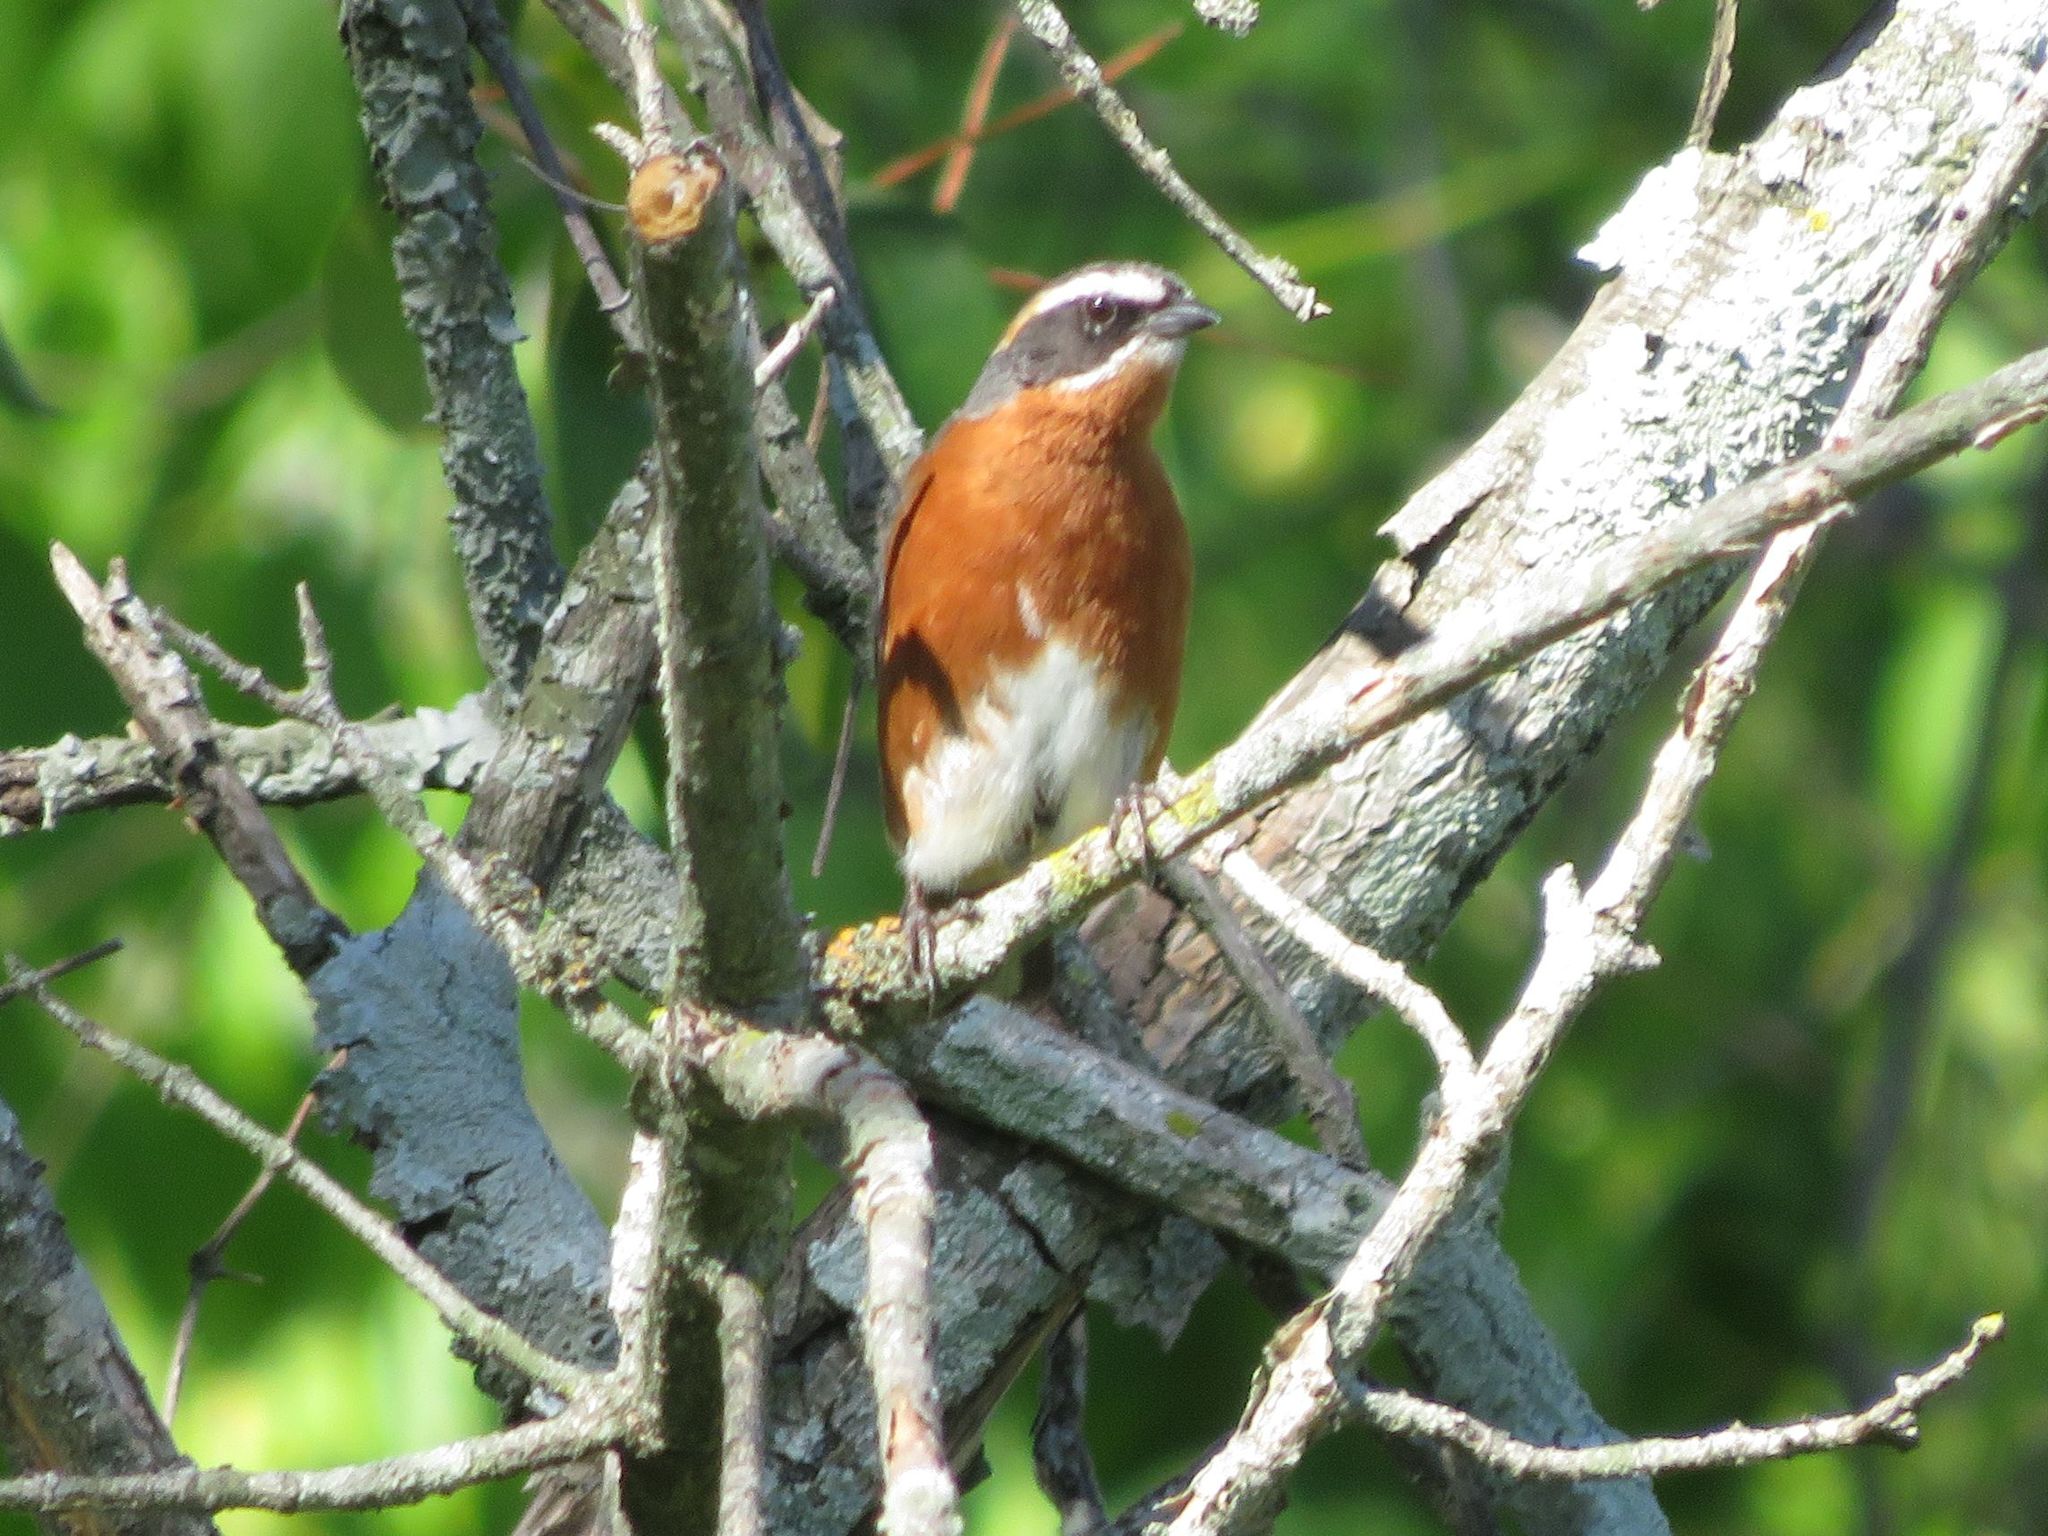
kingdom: Animalia
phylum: Chordata
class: Aves
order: Passeriformes
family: Thraupidae
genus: Poospiza
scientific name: Poospiza nigrorufa
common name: Black-and-rufous warbling finch
